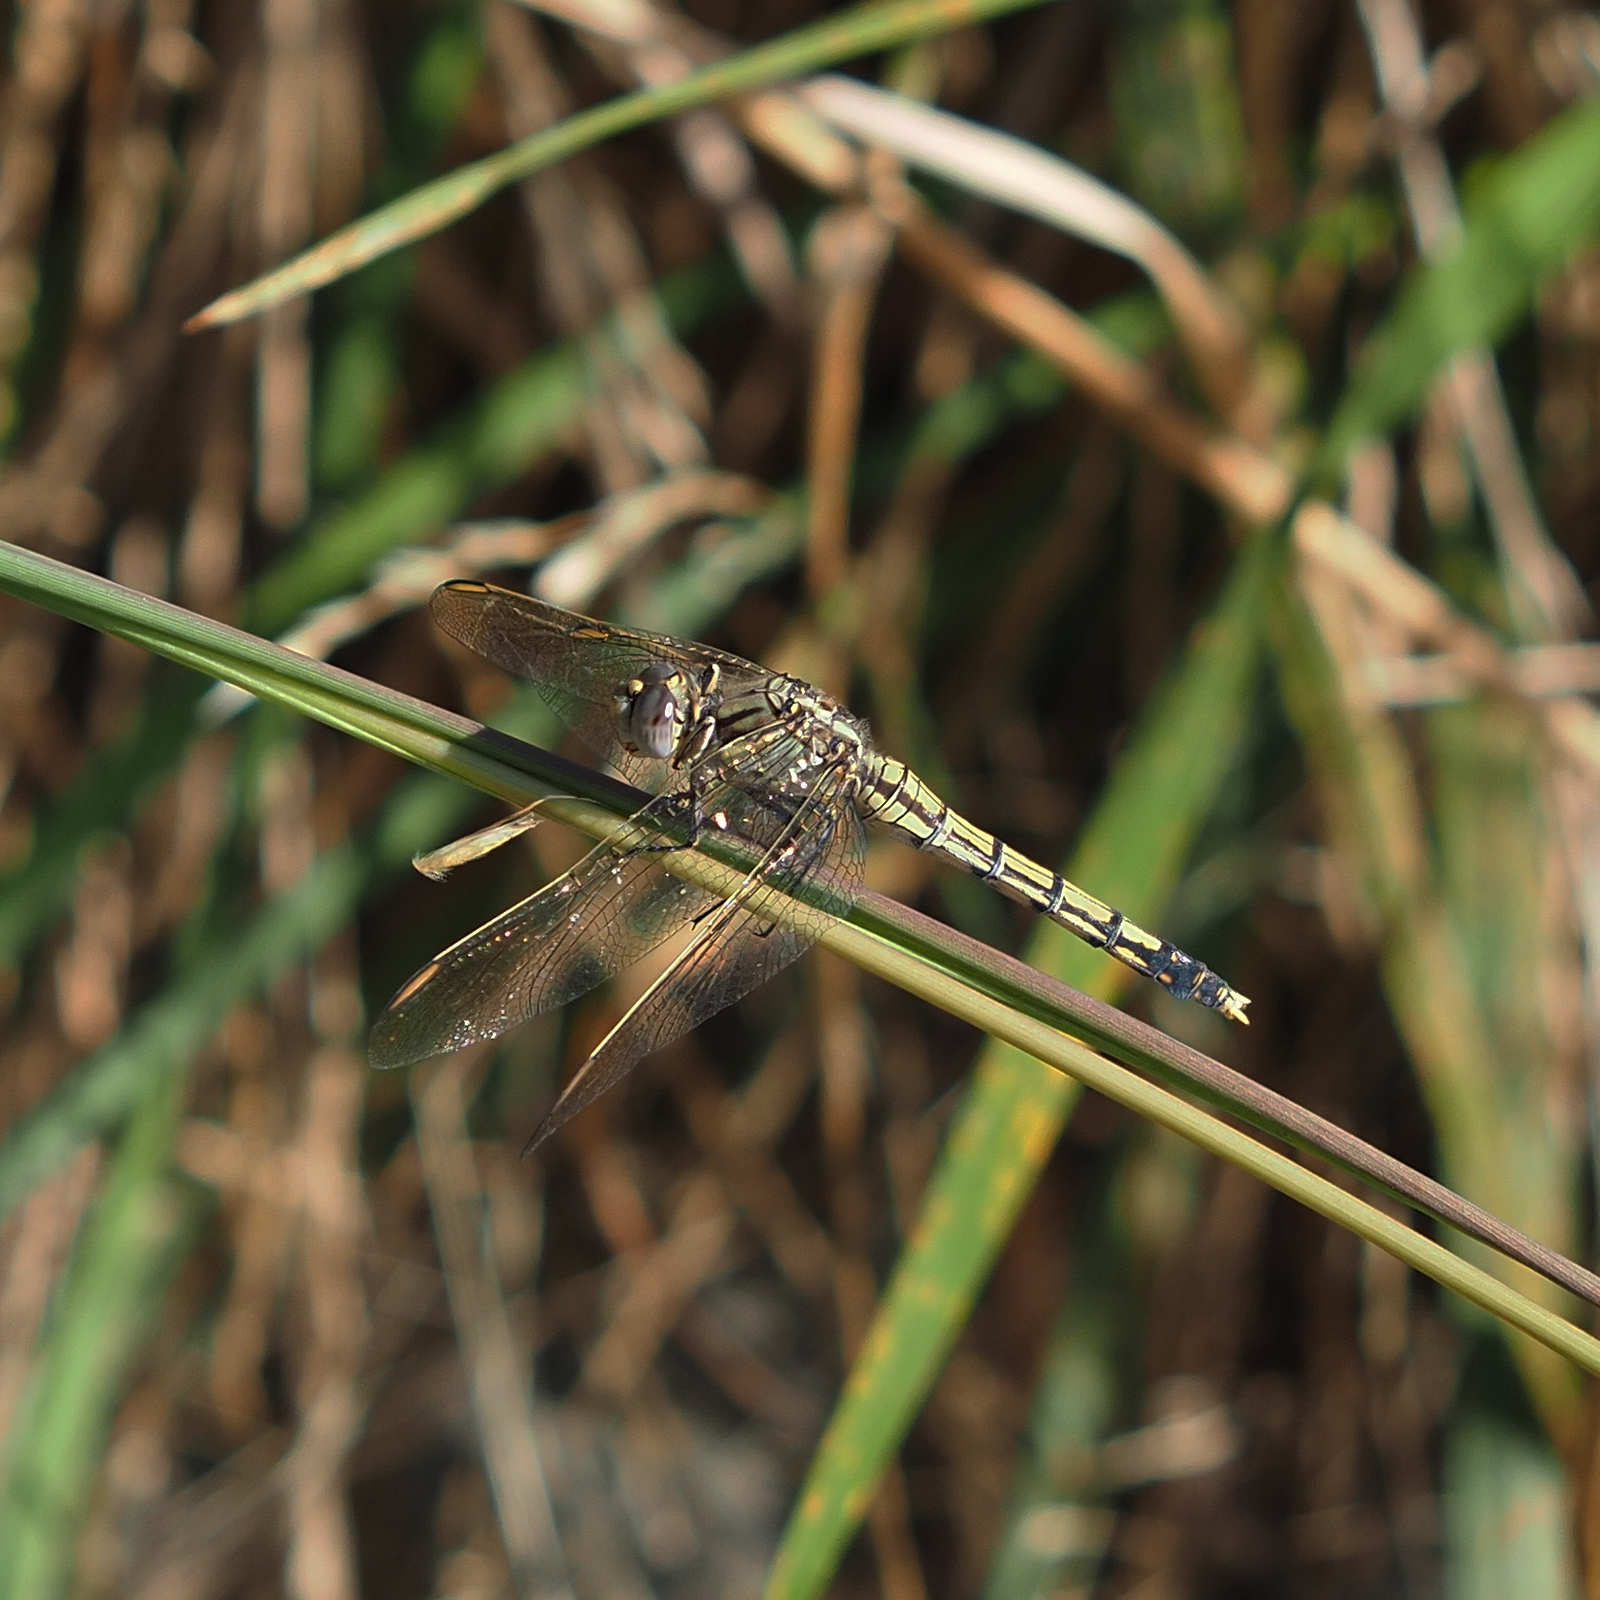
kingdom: Animalia
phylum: Arthropoda
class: Insecta
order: Odonata
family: Libellulidae
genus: Orthetrum
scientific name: Orthetrum caledonicum
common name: Blue skimmer
